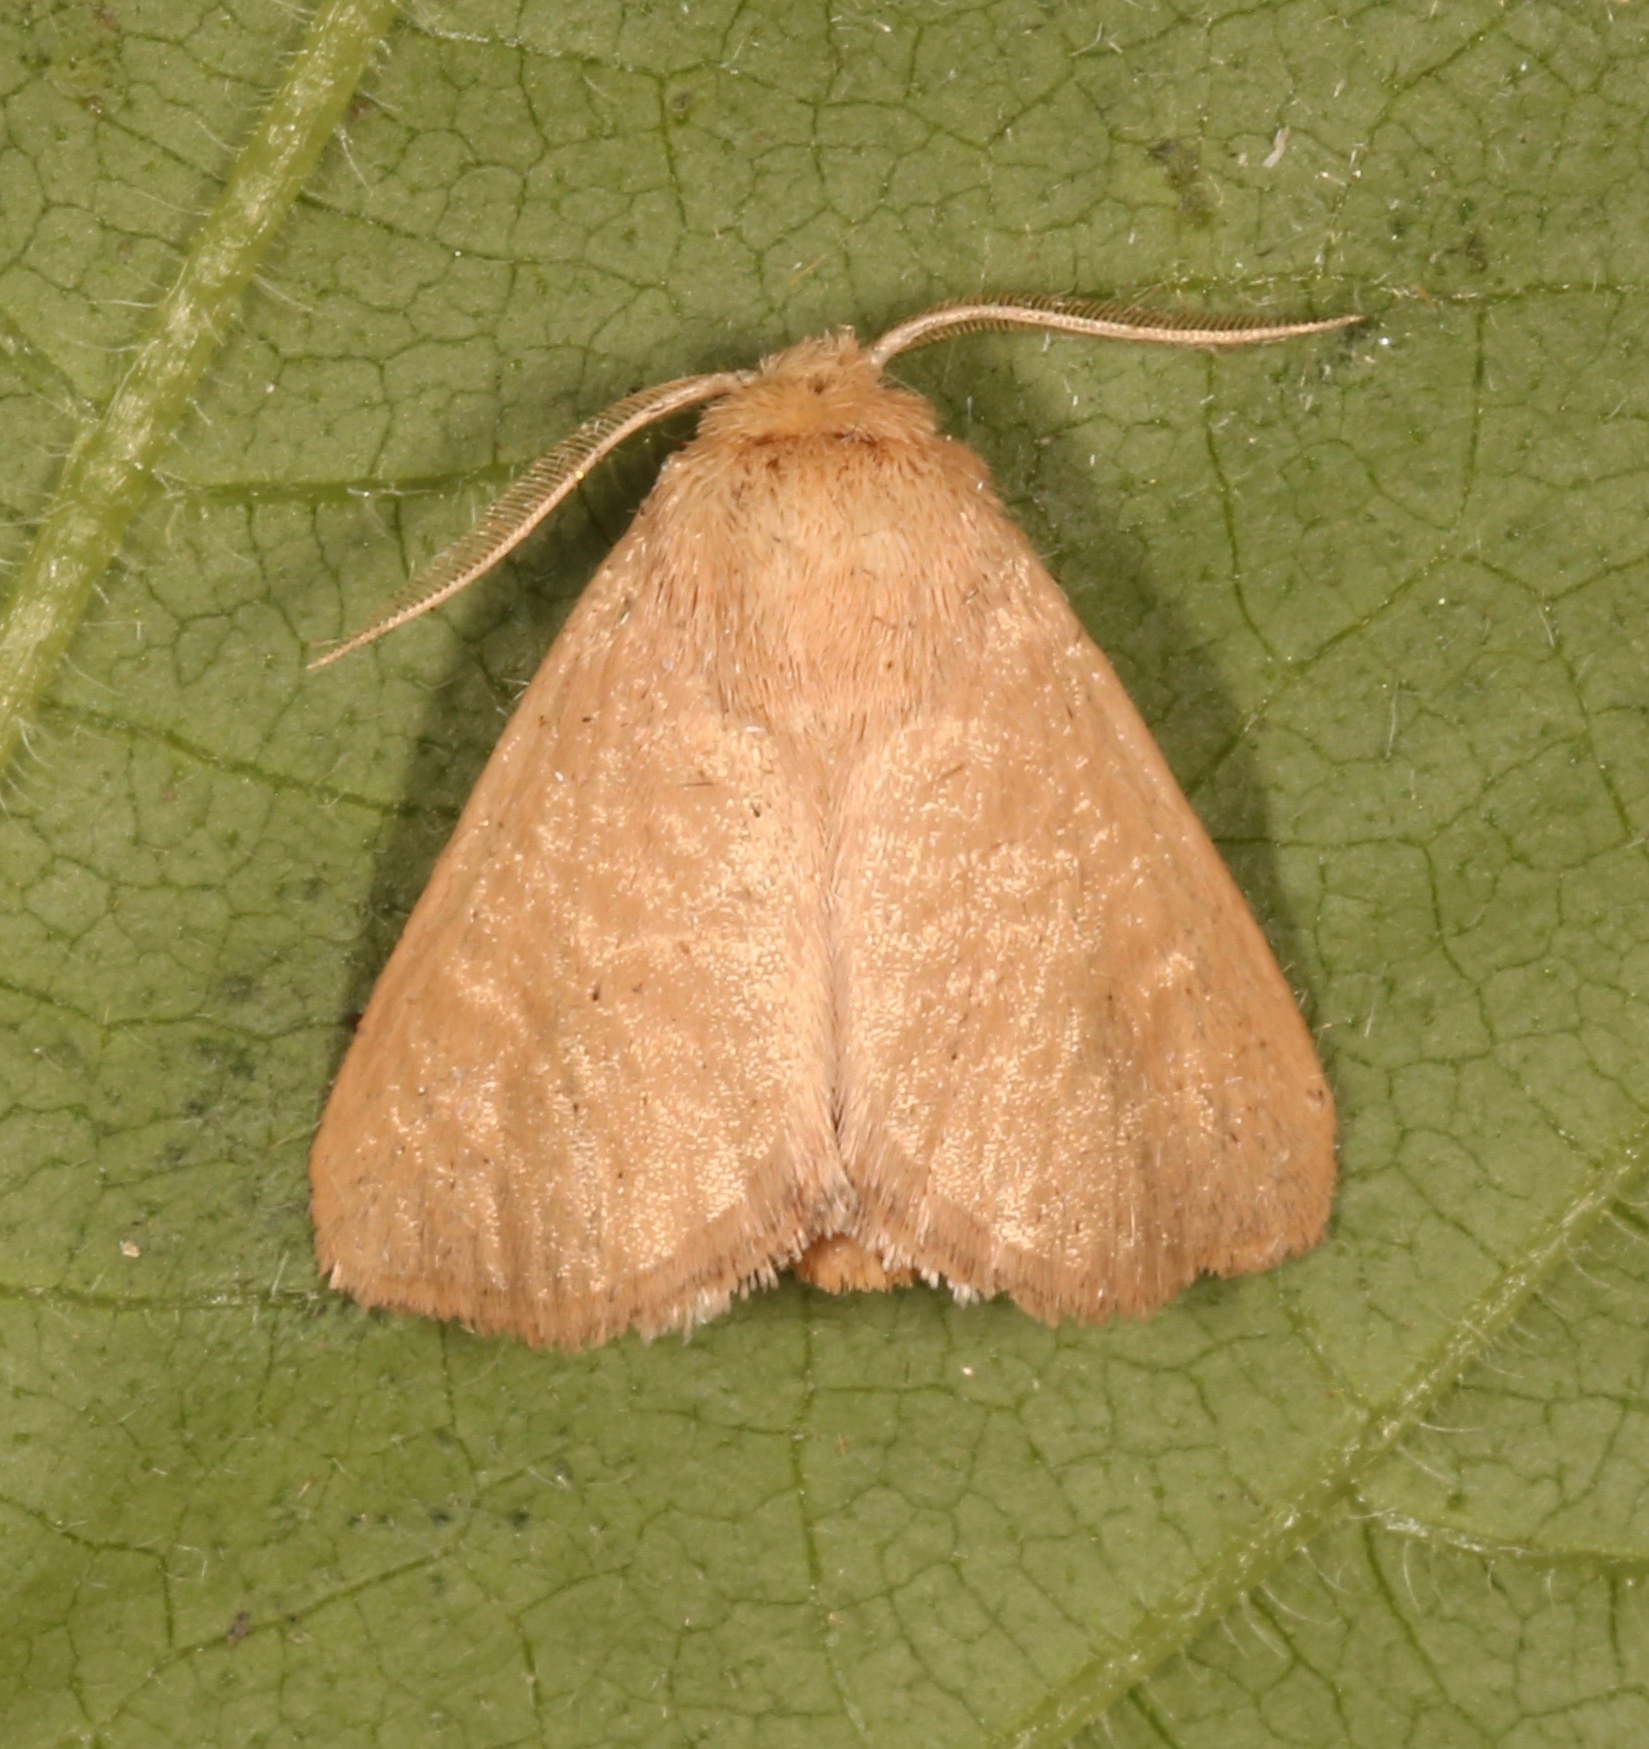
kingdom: Animalia
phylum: Arthropoda
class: Insecta
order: Lepidoptera
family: Limacodidae
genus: Isa
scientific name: Isa schaefferana
